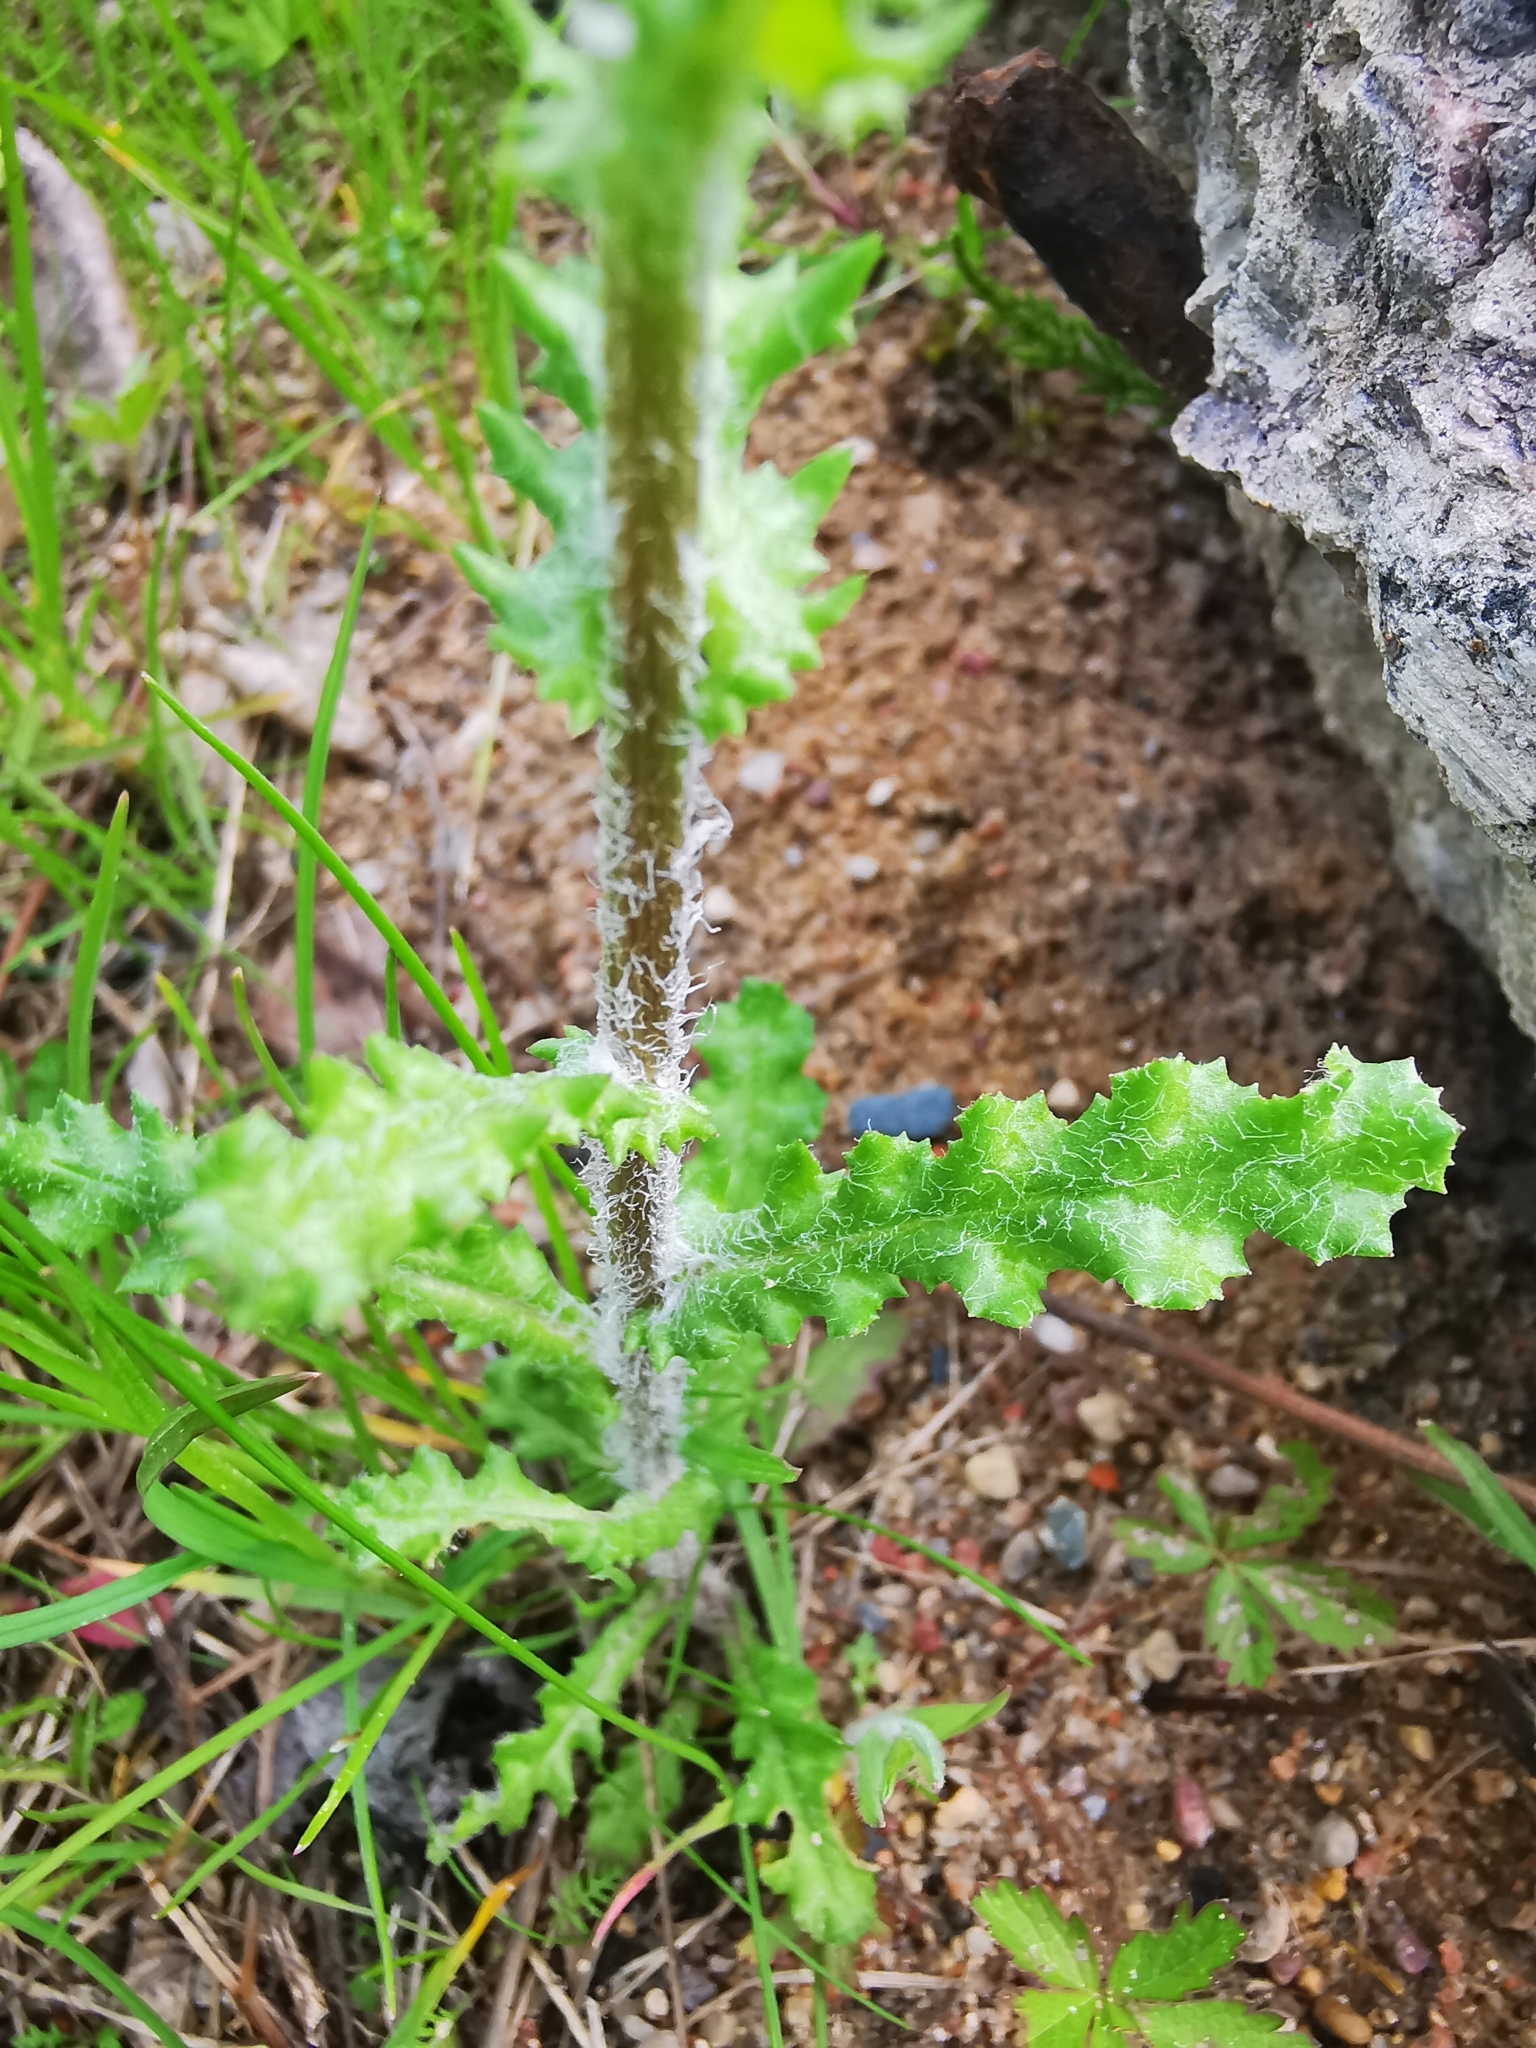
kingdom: Plantae
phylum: Tracheophyta
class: Magnoliopsida
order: Asterales
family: Asteraceae
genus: Senecio
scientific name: Senecio vernalis
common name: Eastern groundsel
